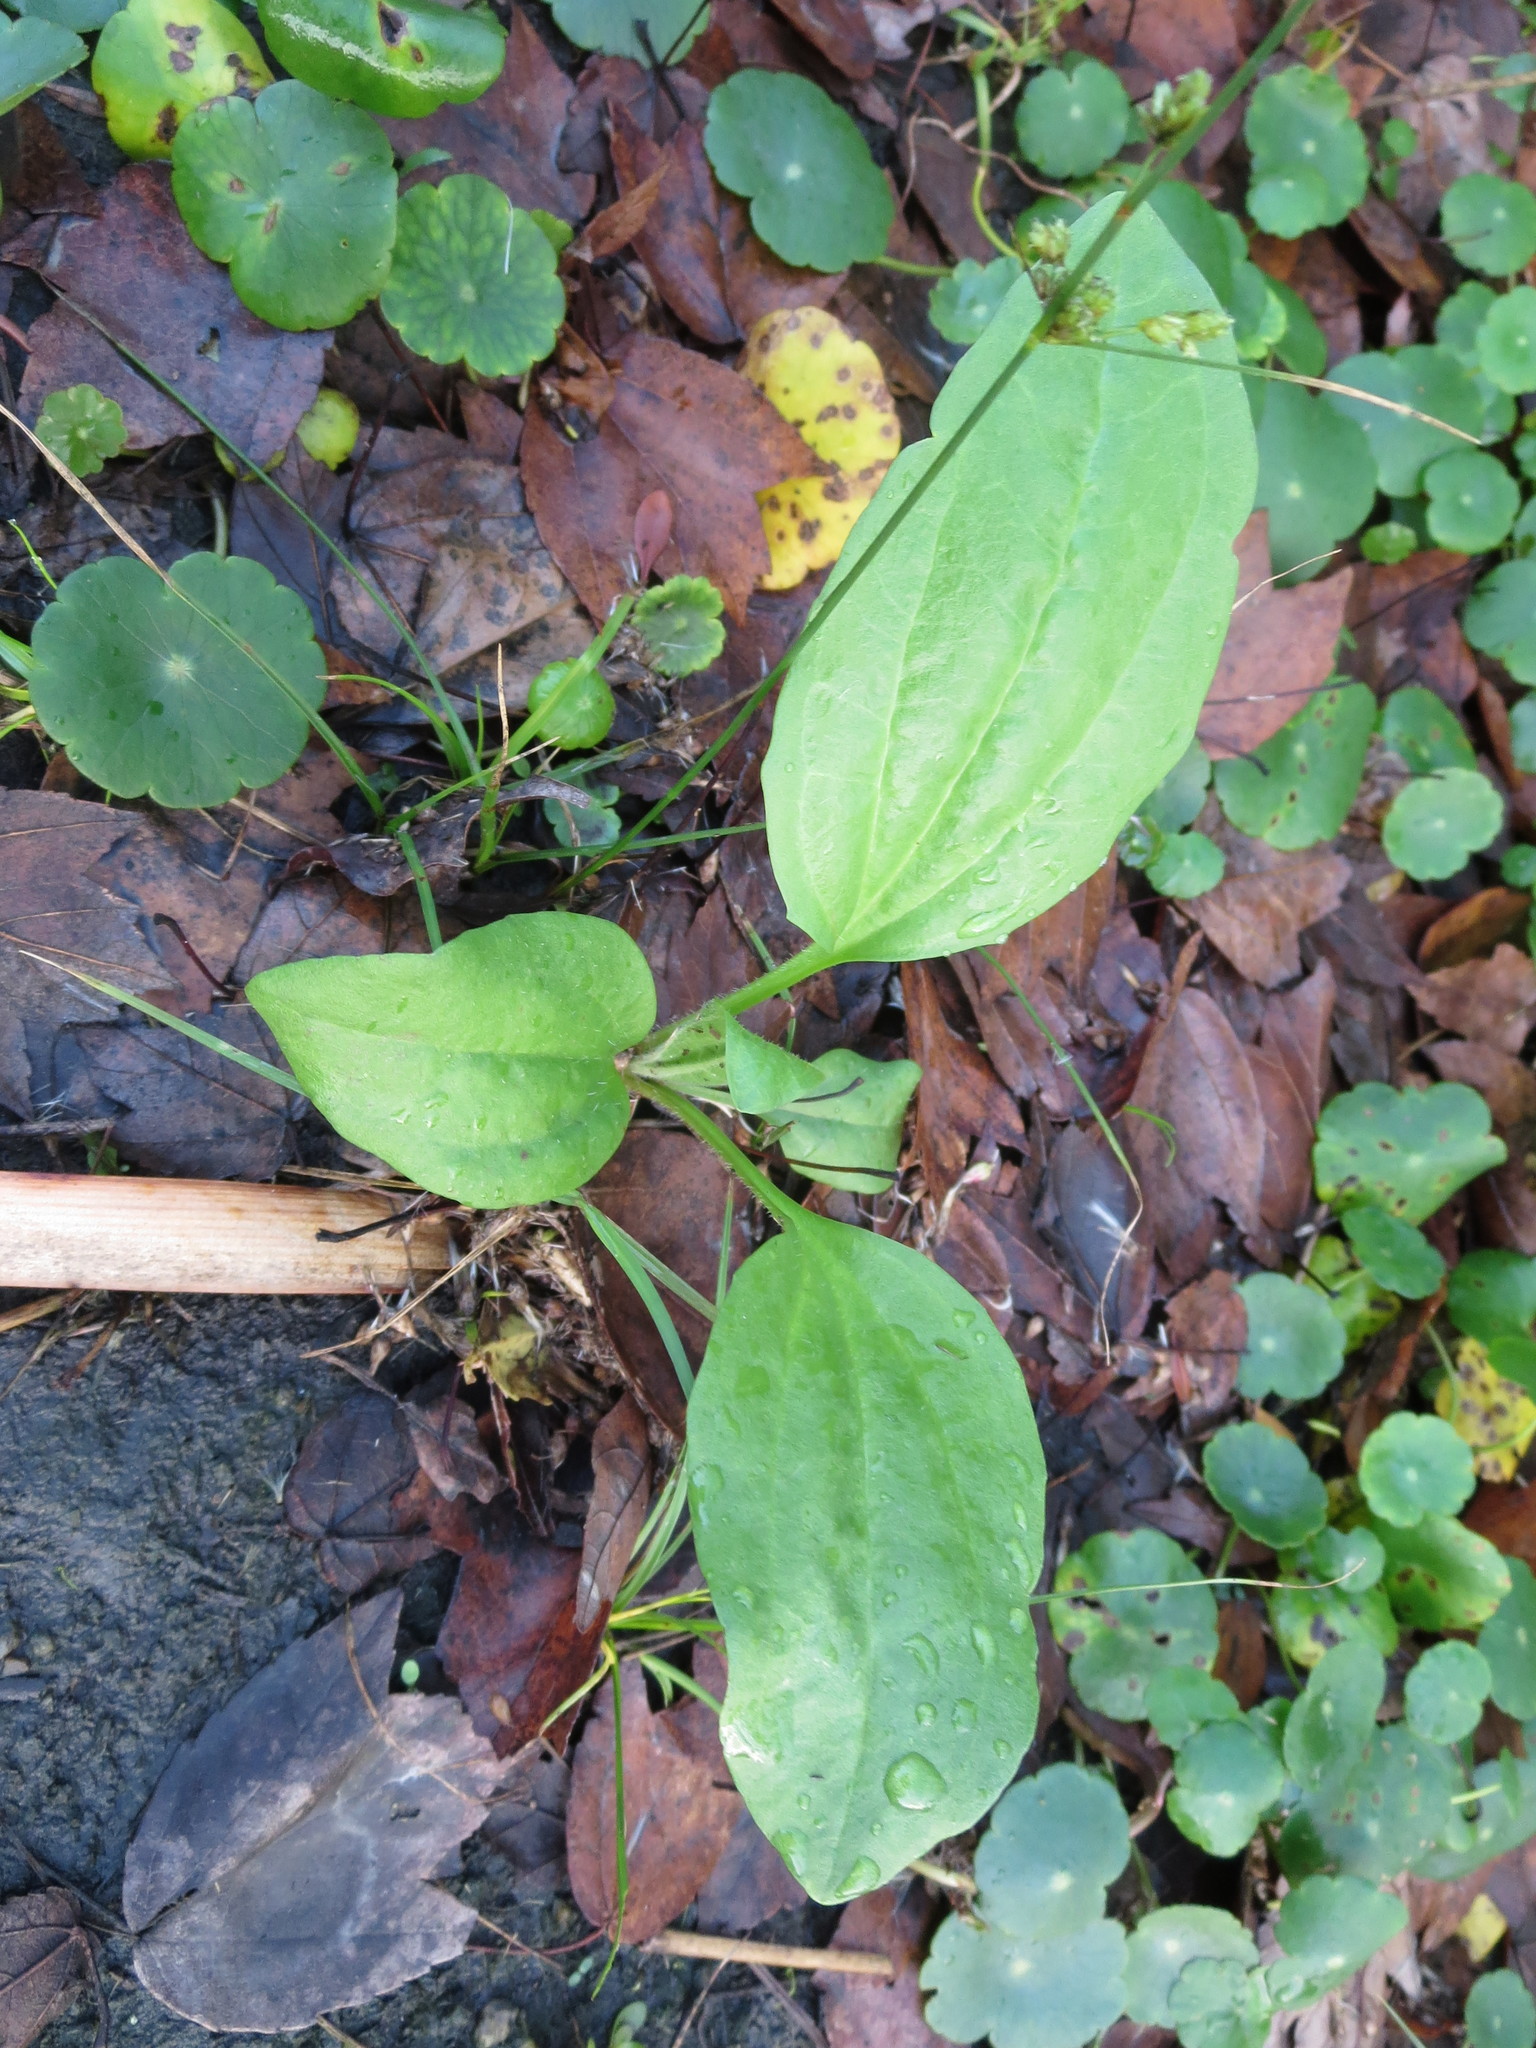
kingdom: Plantae
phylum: Tracheophyta
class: Magnoliopsida
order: Lamiales
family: Plantaginaceae
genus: Plantago
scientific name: Plantago major
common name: Common plantain
